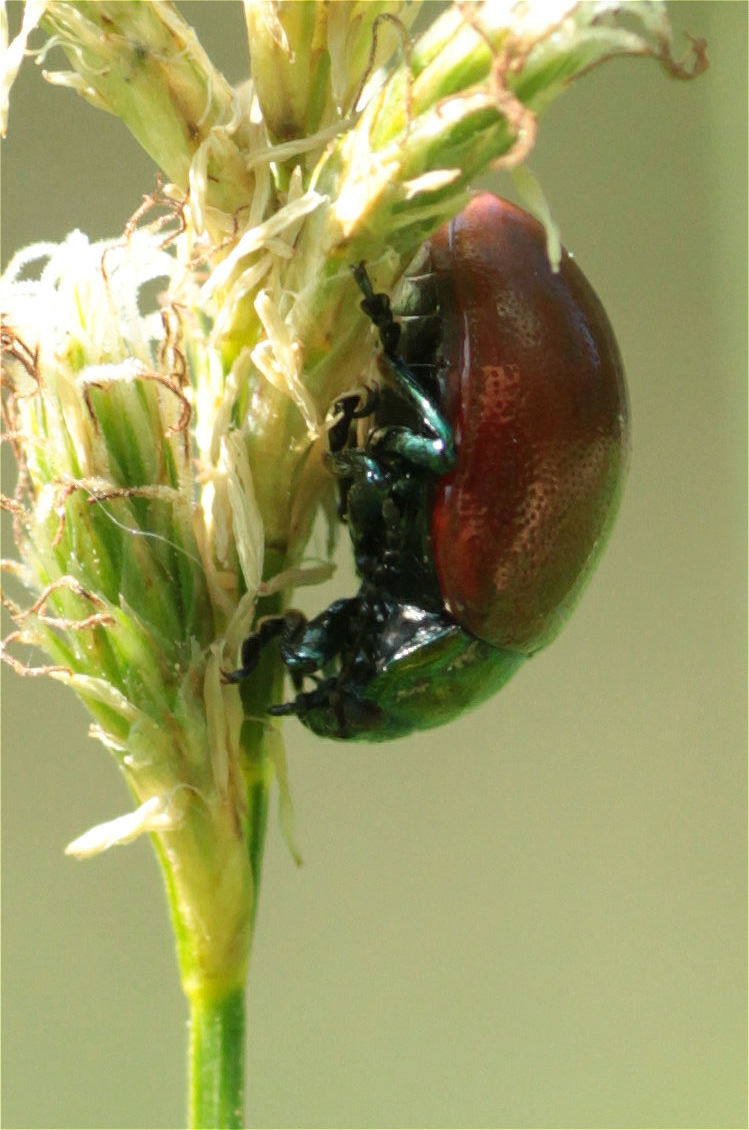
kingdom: Animalia
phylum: Arthropoda
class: Insecta
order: Coleoptera
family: Chrysomelidae
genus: Chrysomela
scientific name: Chrysomela polita
